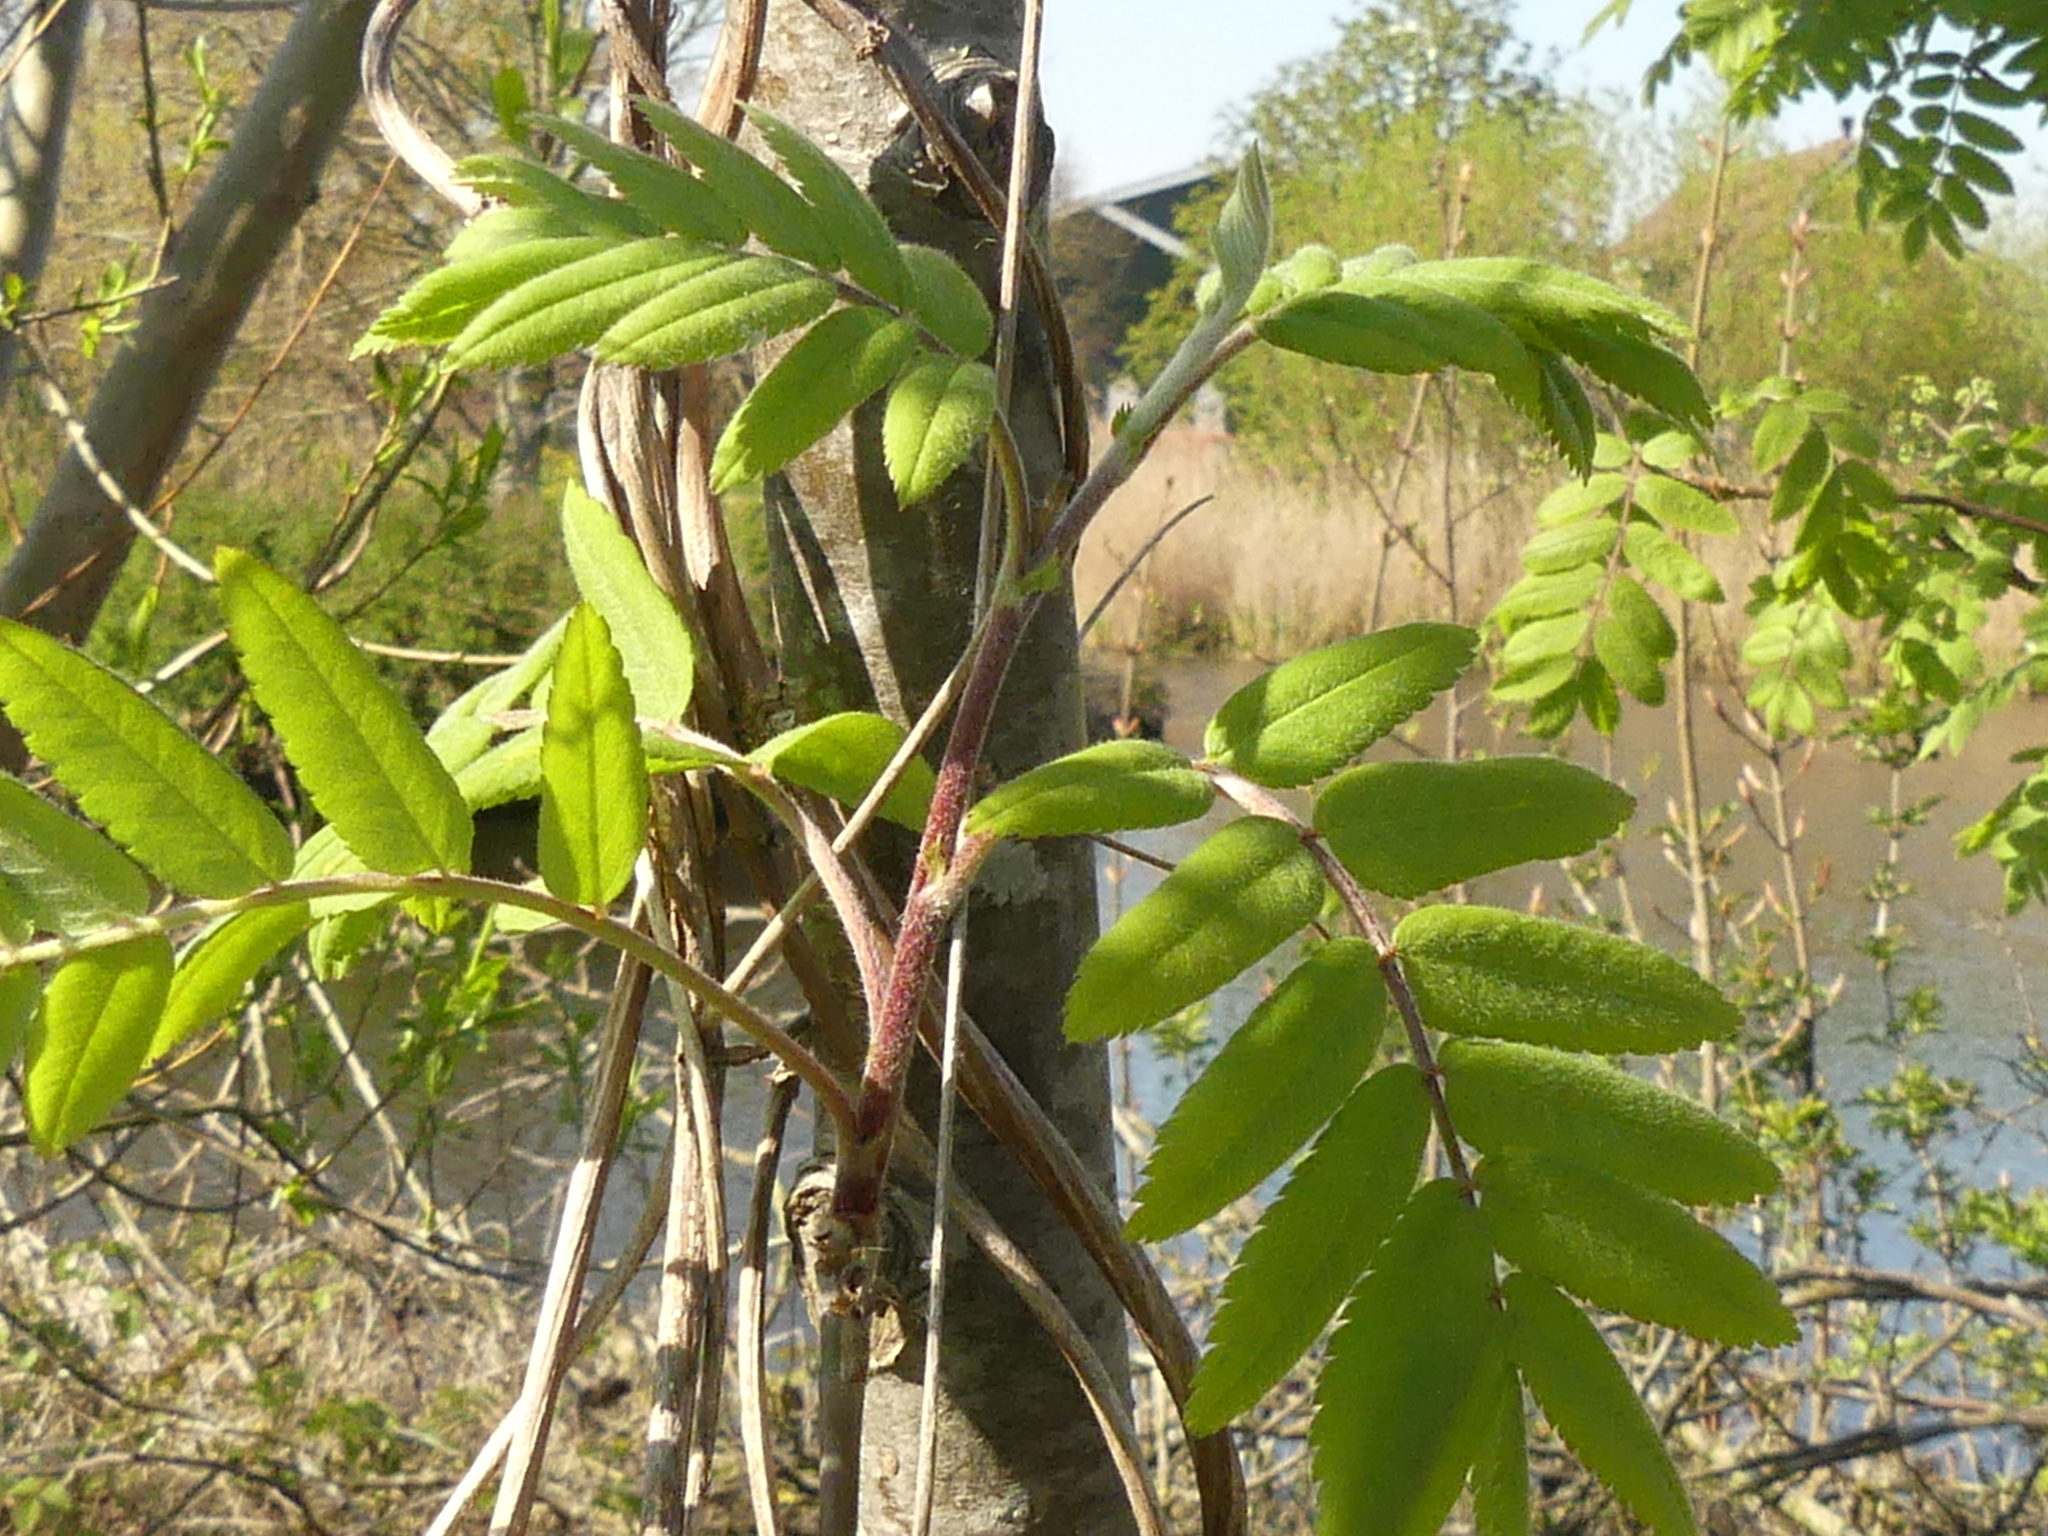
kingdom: Plantae
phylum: Tracheophyta
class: Magnoliopsida
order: Rosales
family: Rosaceae
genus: Sorbus
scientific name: Sorbus aucuparia
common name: Rowan
